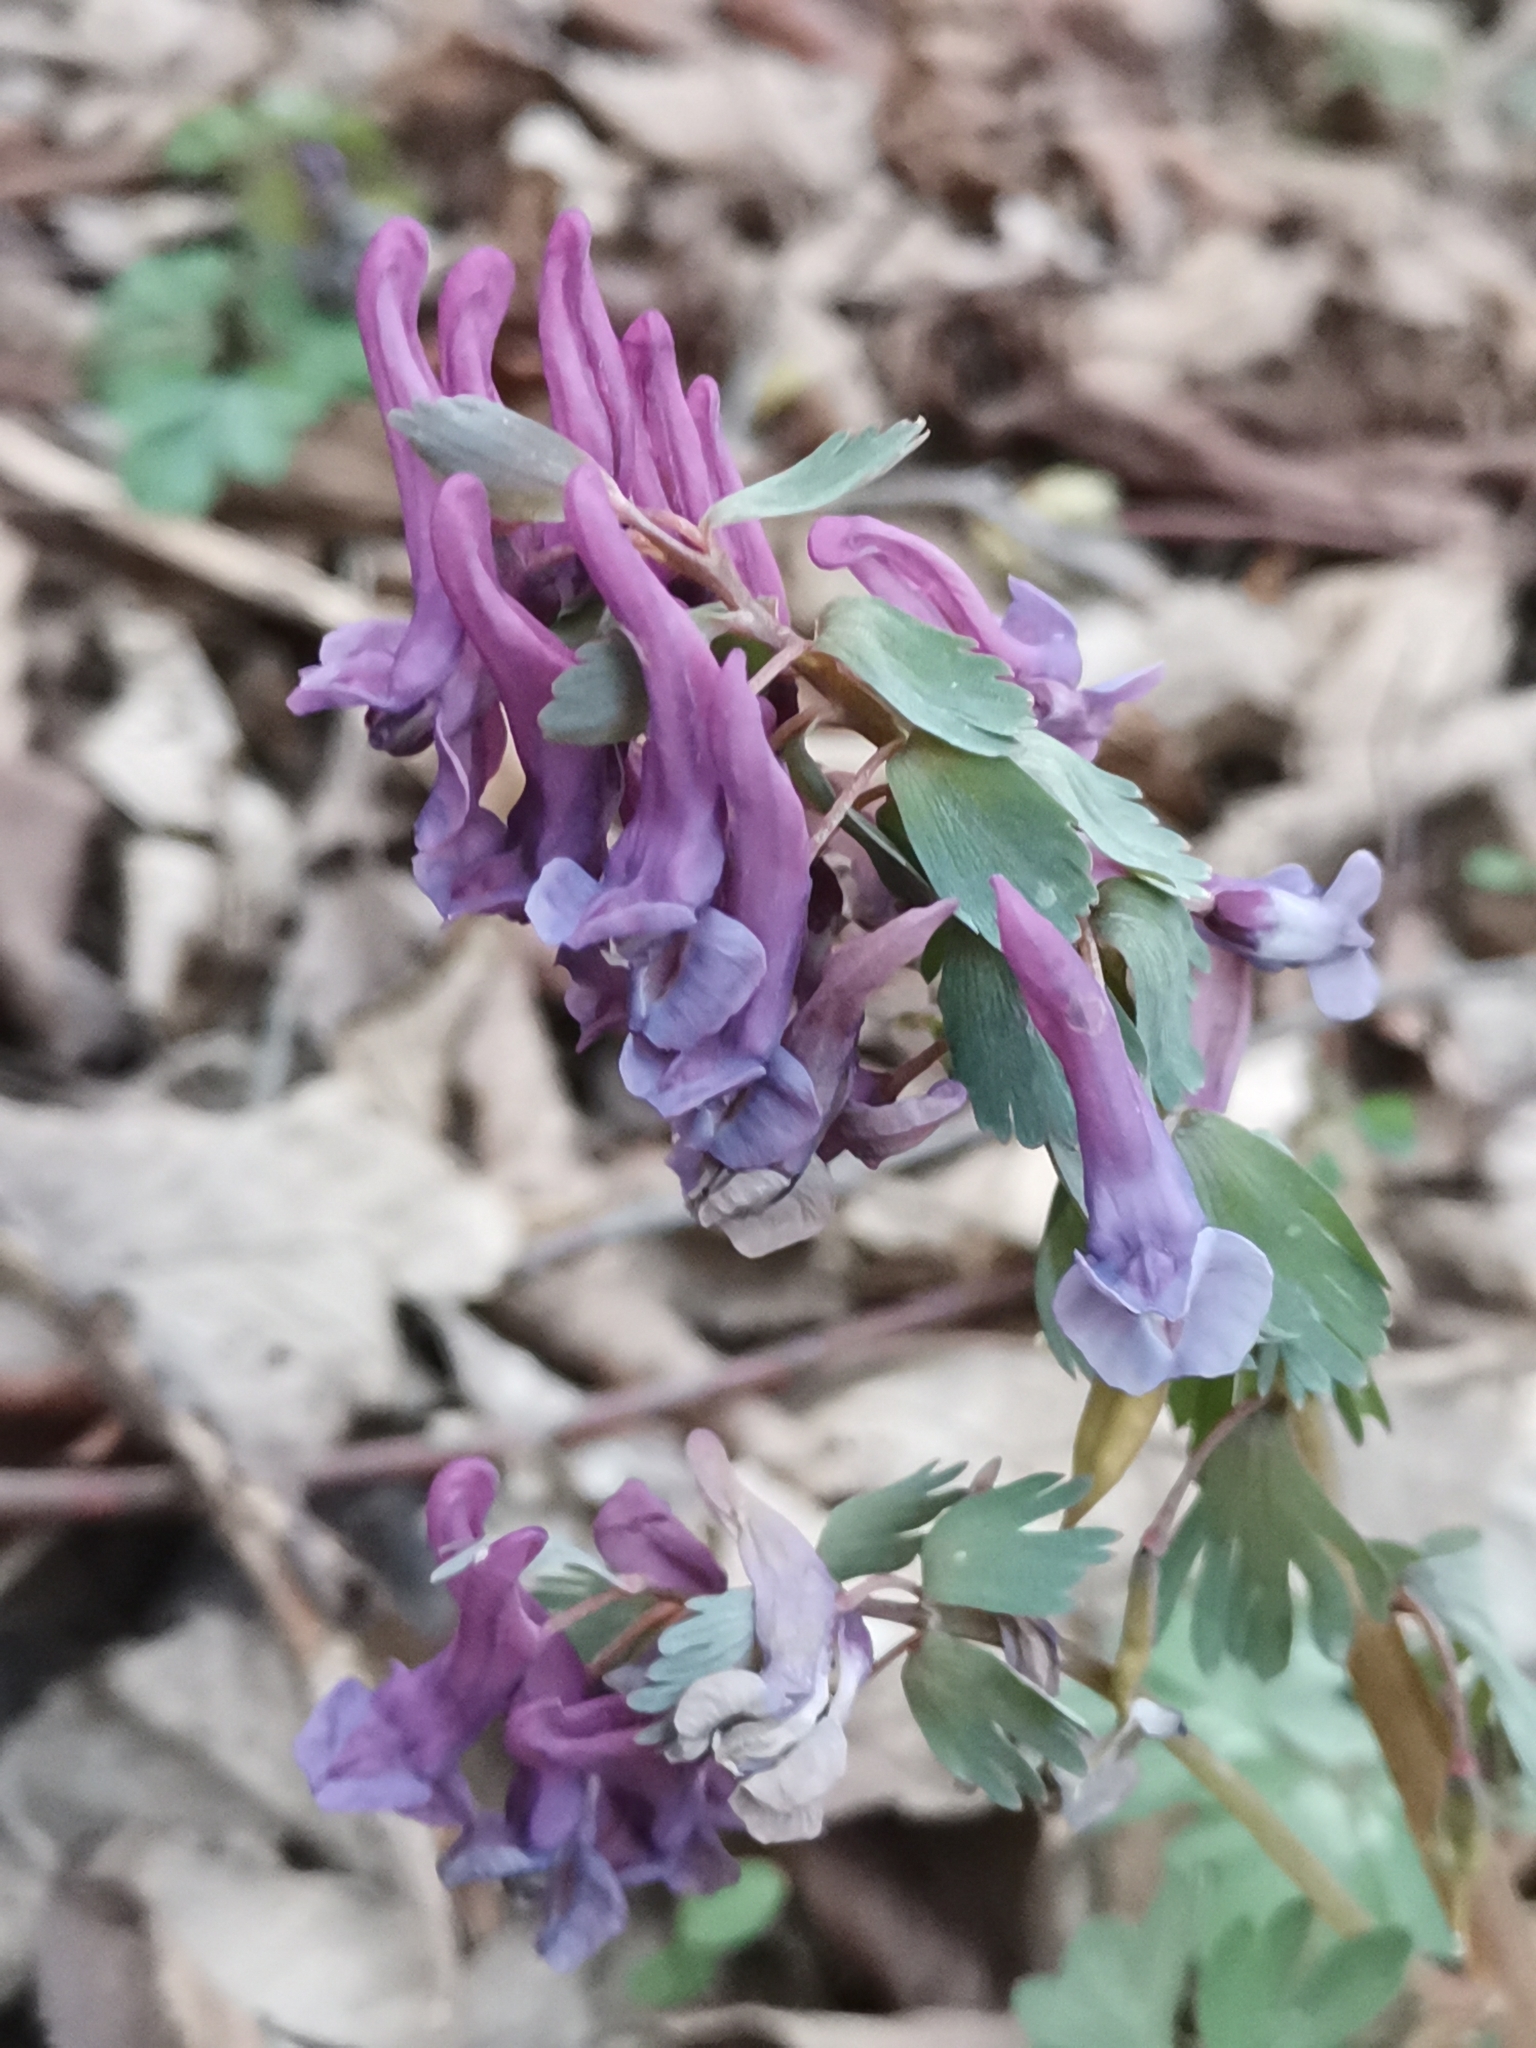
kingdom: Plantae
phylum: Tracheophyta
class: Magnoliopsida
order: Ranunculales
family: Papaveraceae
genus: Corydalis
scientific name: Corydalis solida
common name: Bird-in-a-bush
